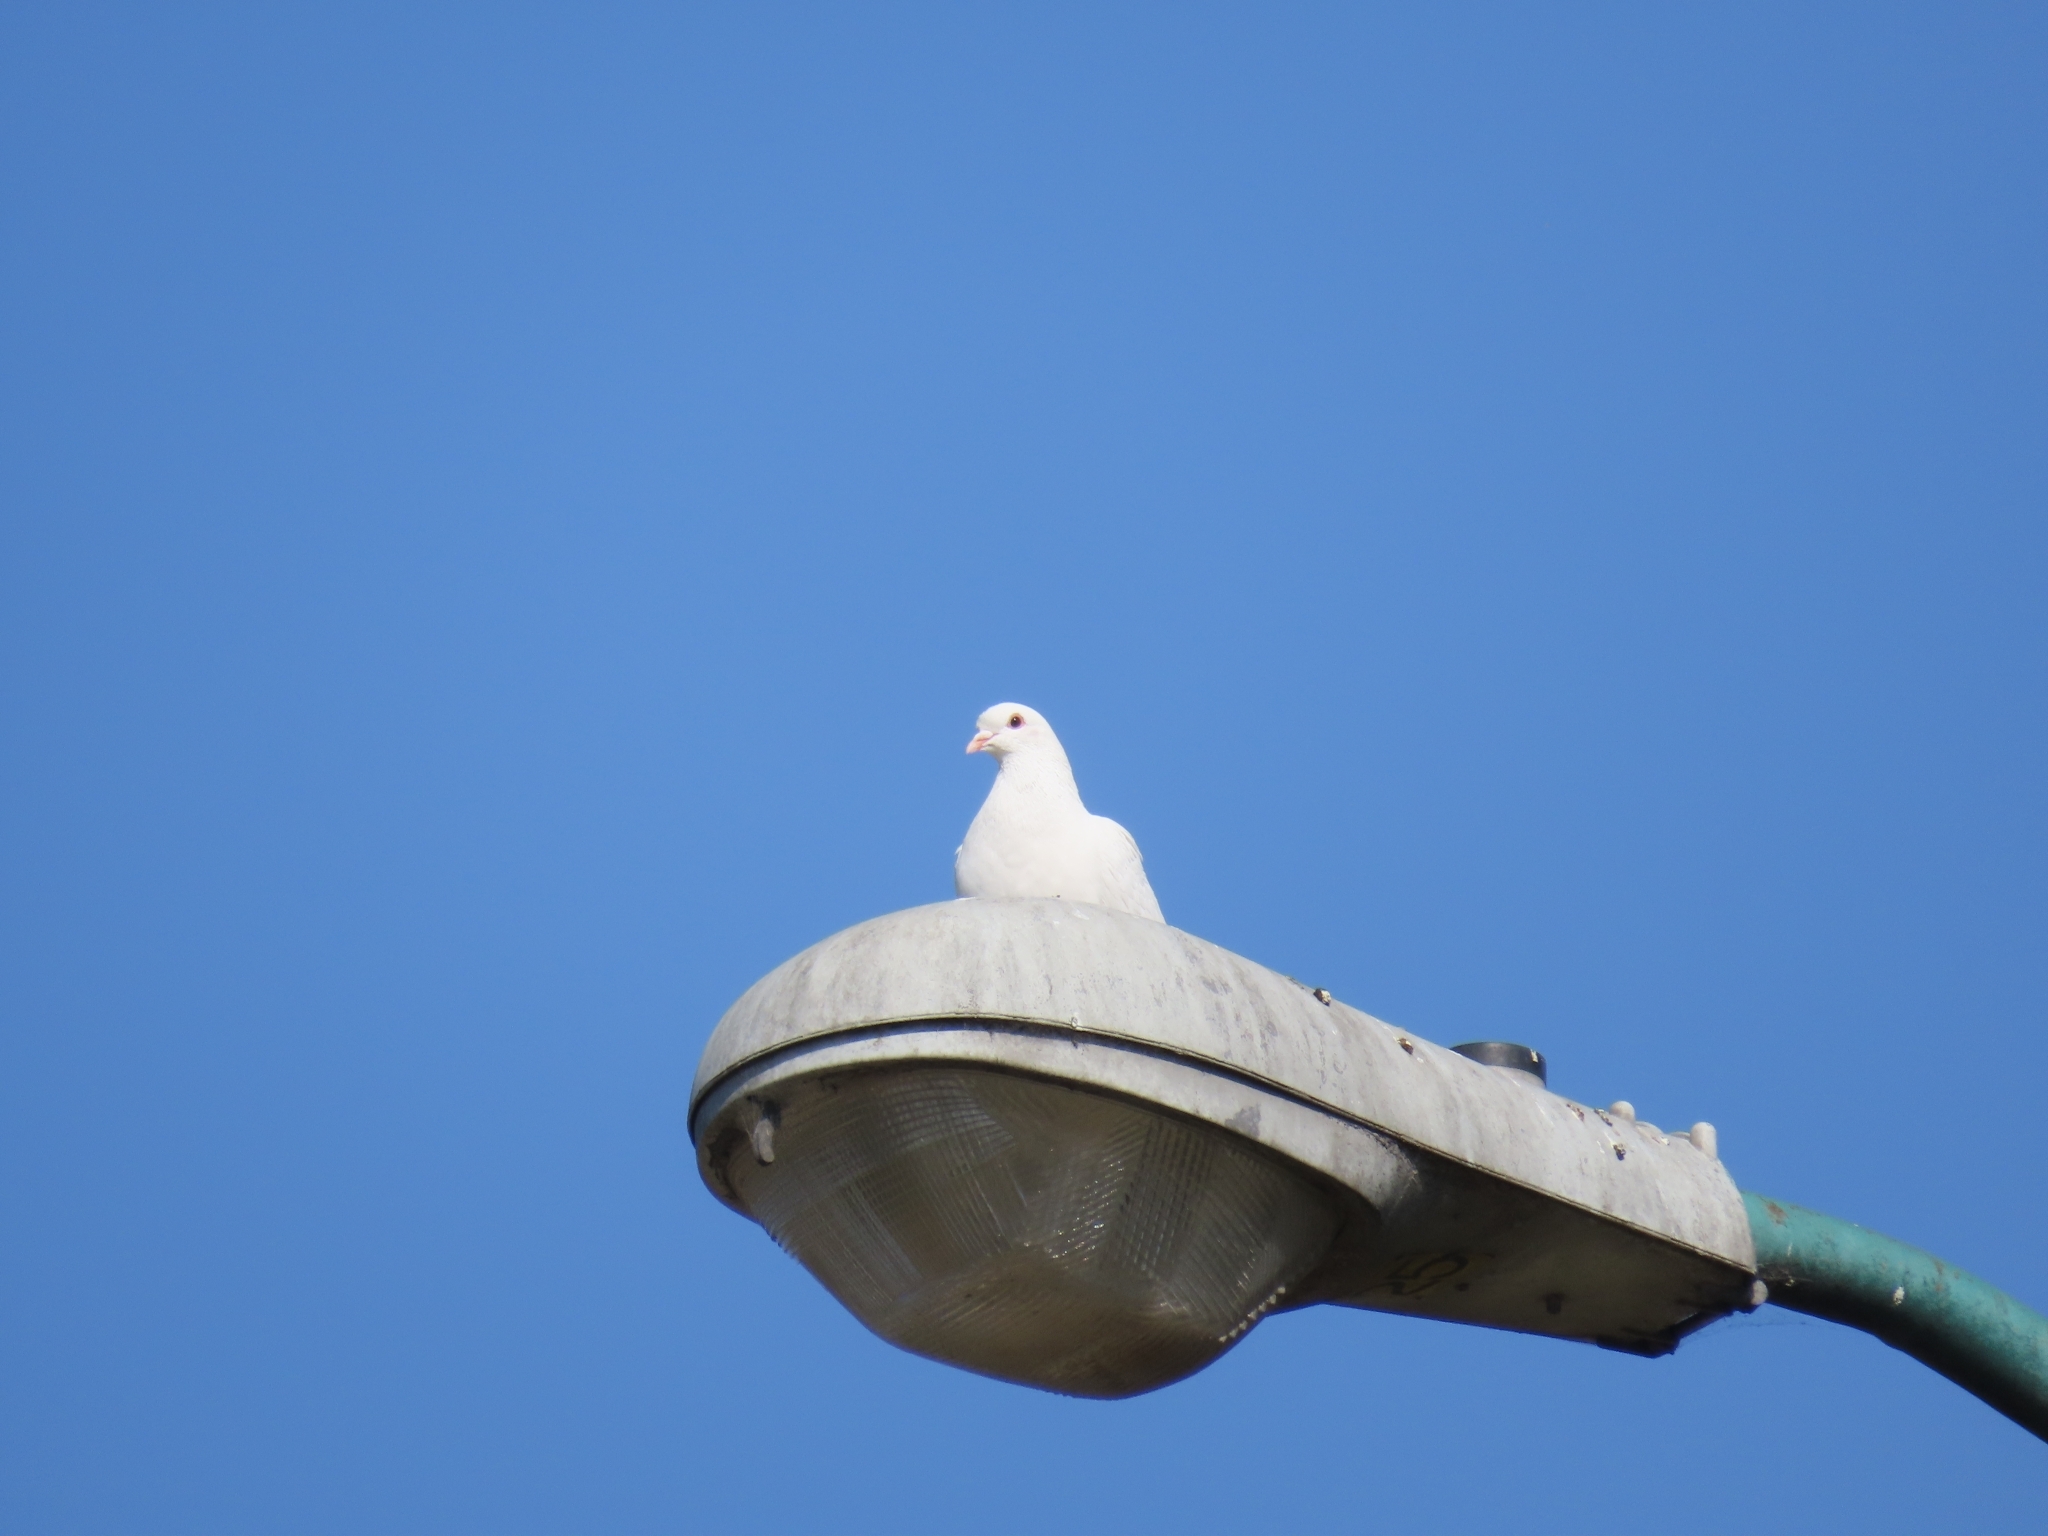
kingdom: Animalia
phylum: Chordata
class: Aves
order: Columbiformes
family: Columbidae
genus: Columba
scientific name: Columba livia
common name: Rock pigeon
